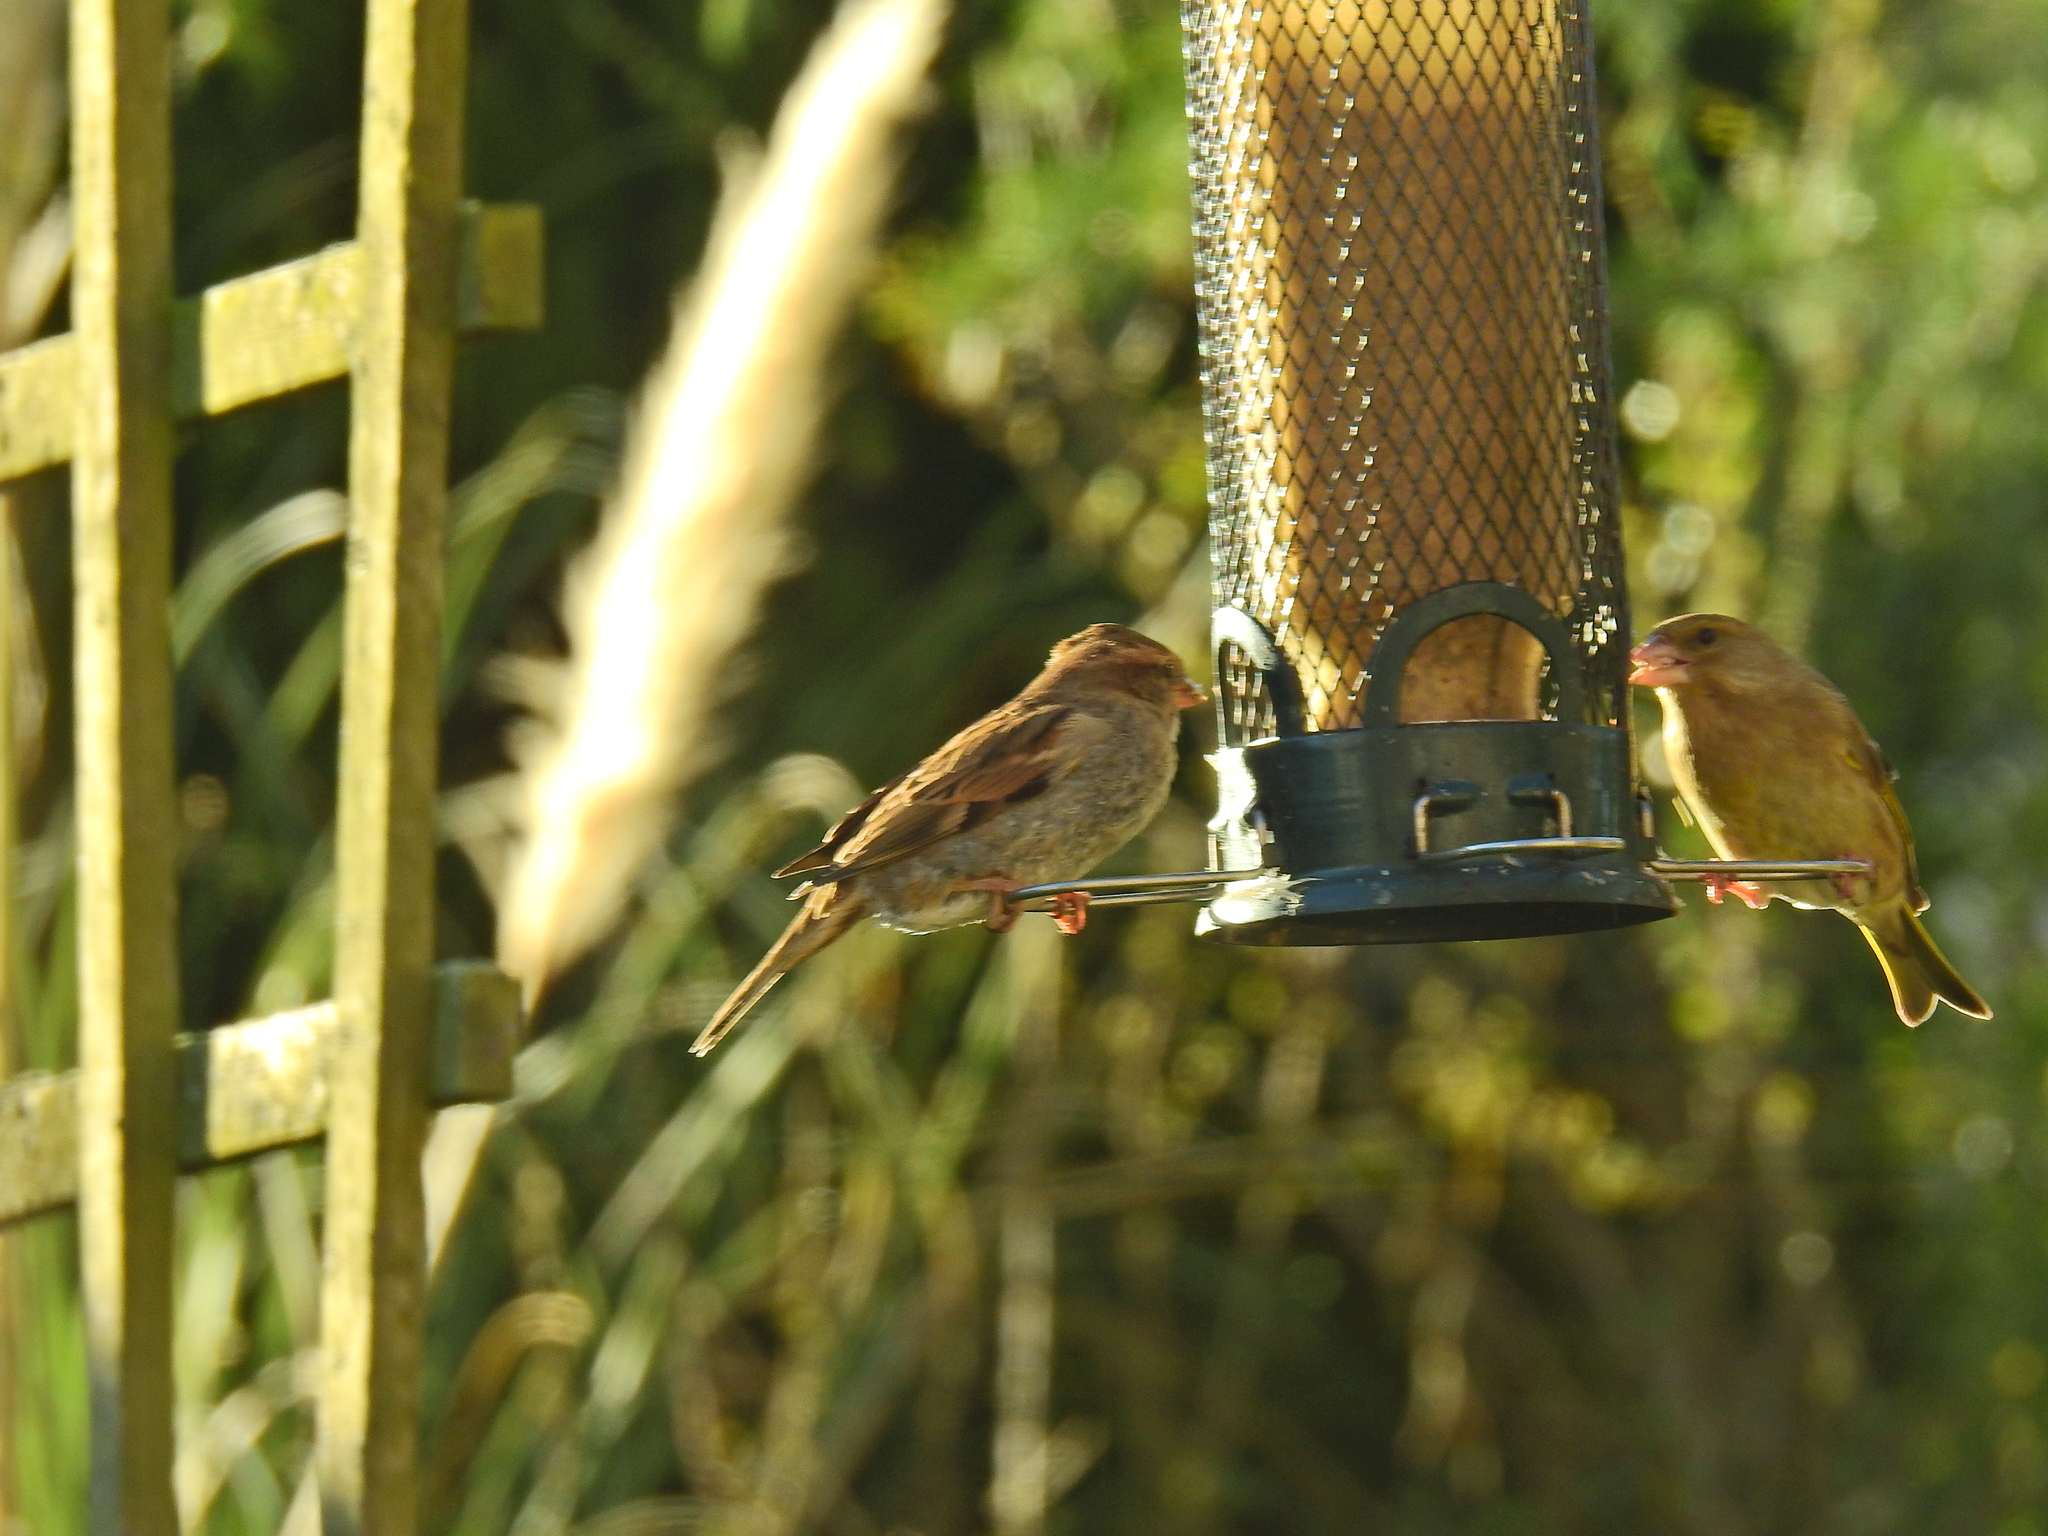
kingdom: Animalia
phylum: Chordata
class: Aves
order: Passeriformes
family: Passeridae
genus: Passer
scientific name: Passer domesticus
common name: House sparrow
